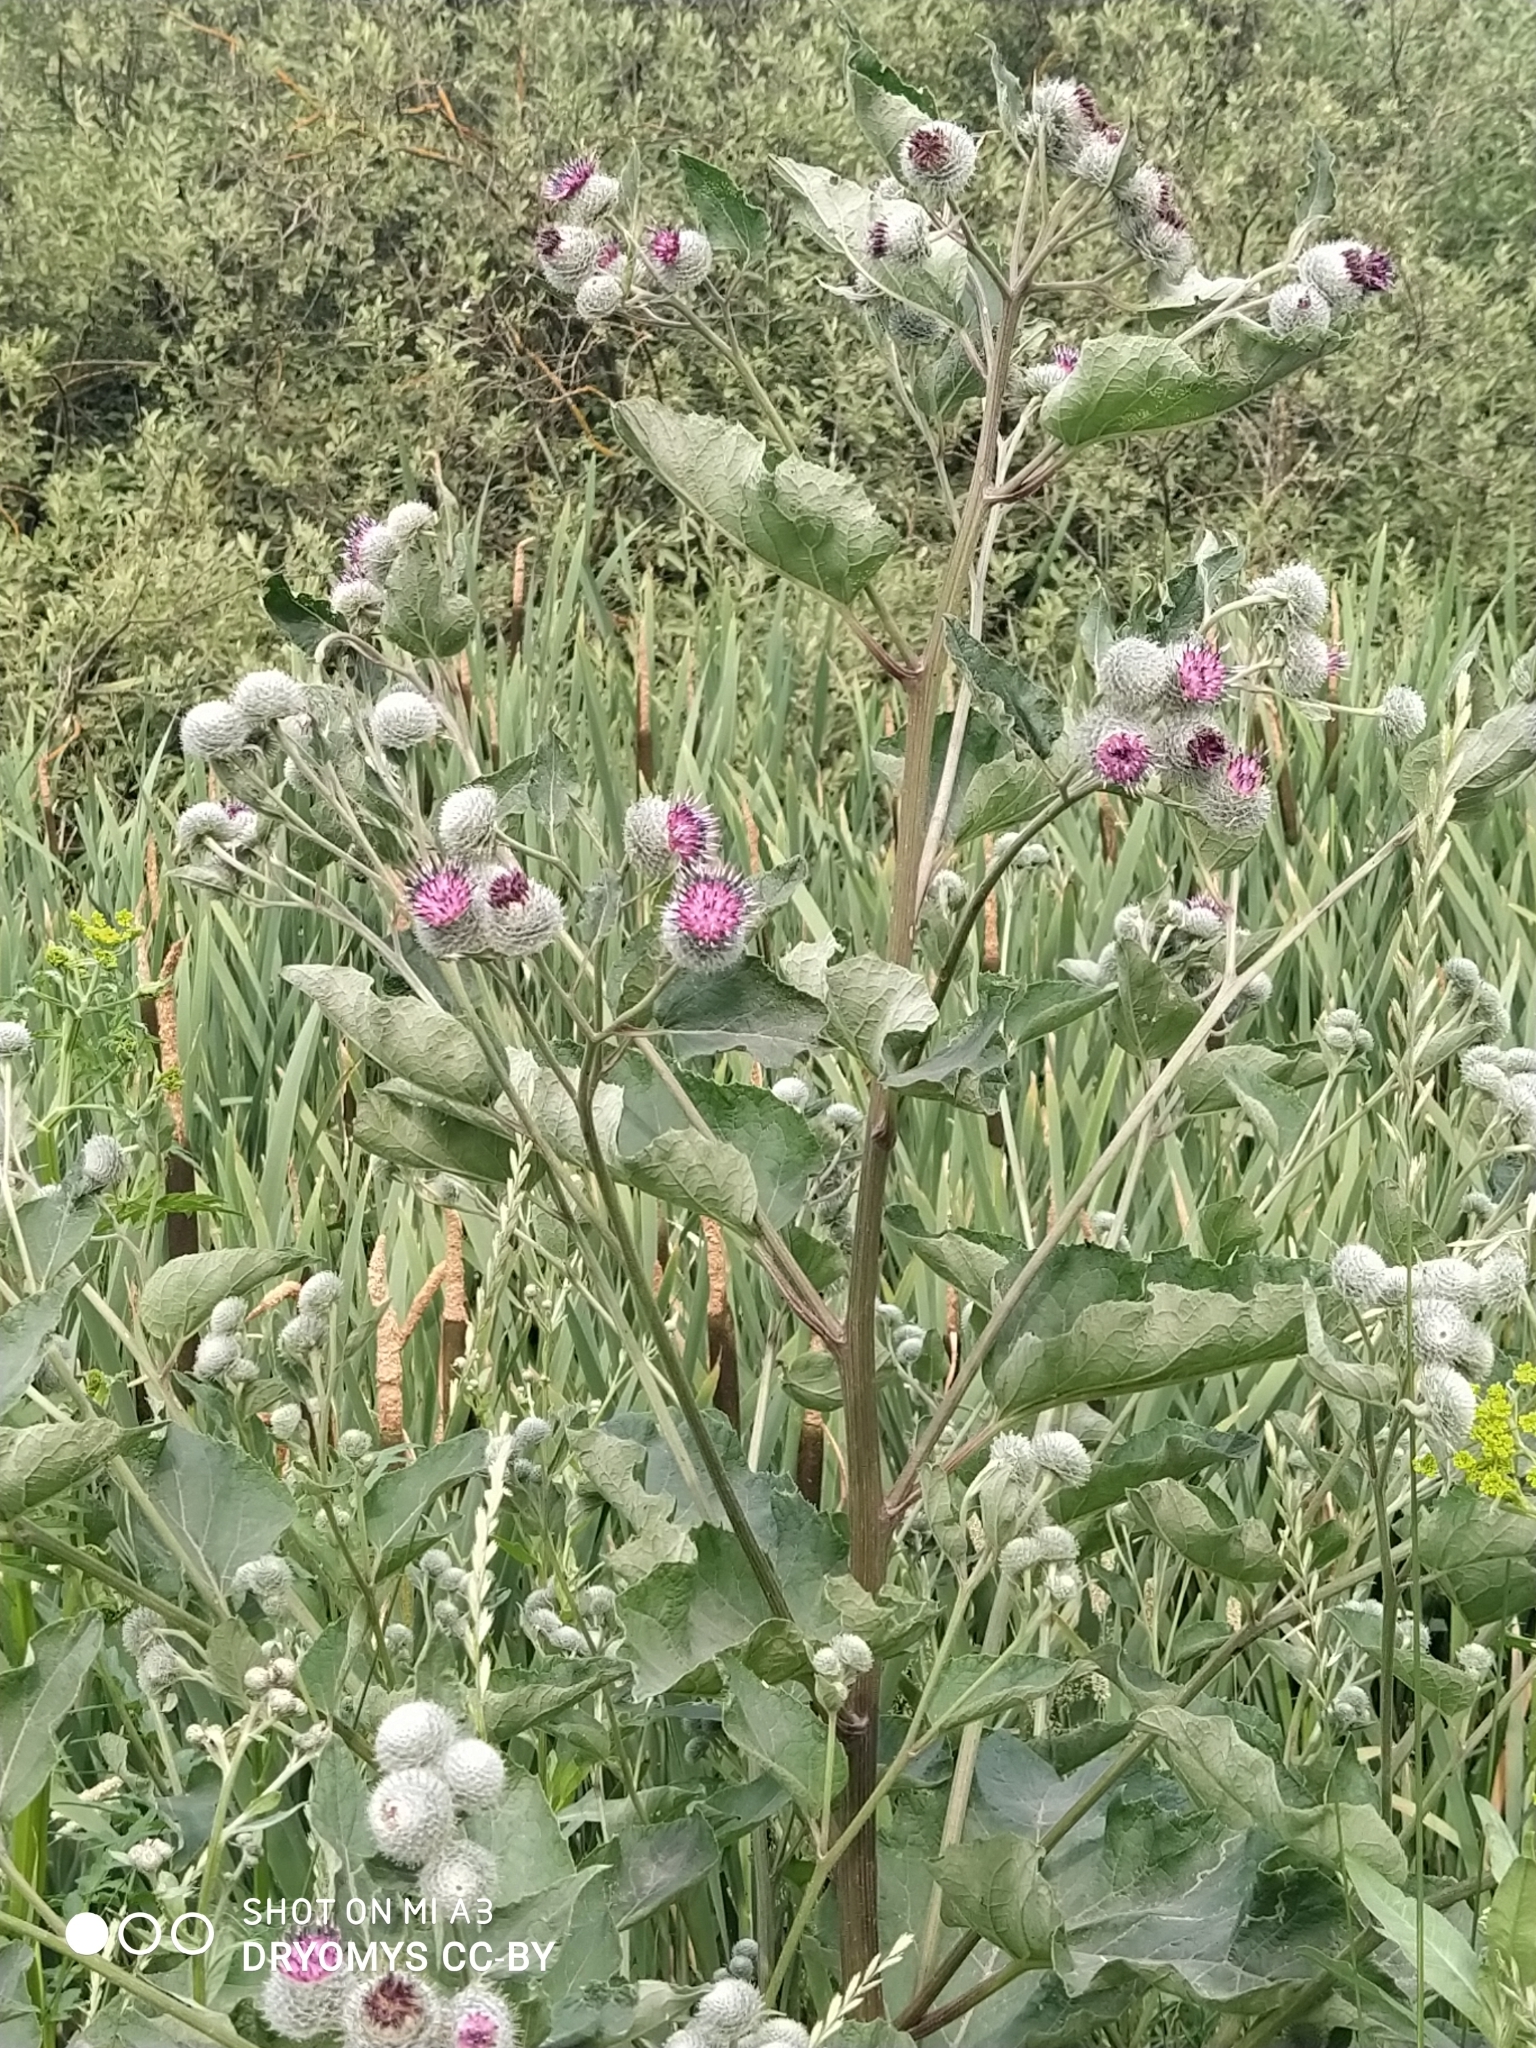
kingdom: Plantae
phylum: Tracheophyta
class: Magnoliopsida
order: Asterales
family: Asteraceae
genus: Arctium
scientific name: Arctium tomentosum
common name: Woolly burdock
